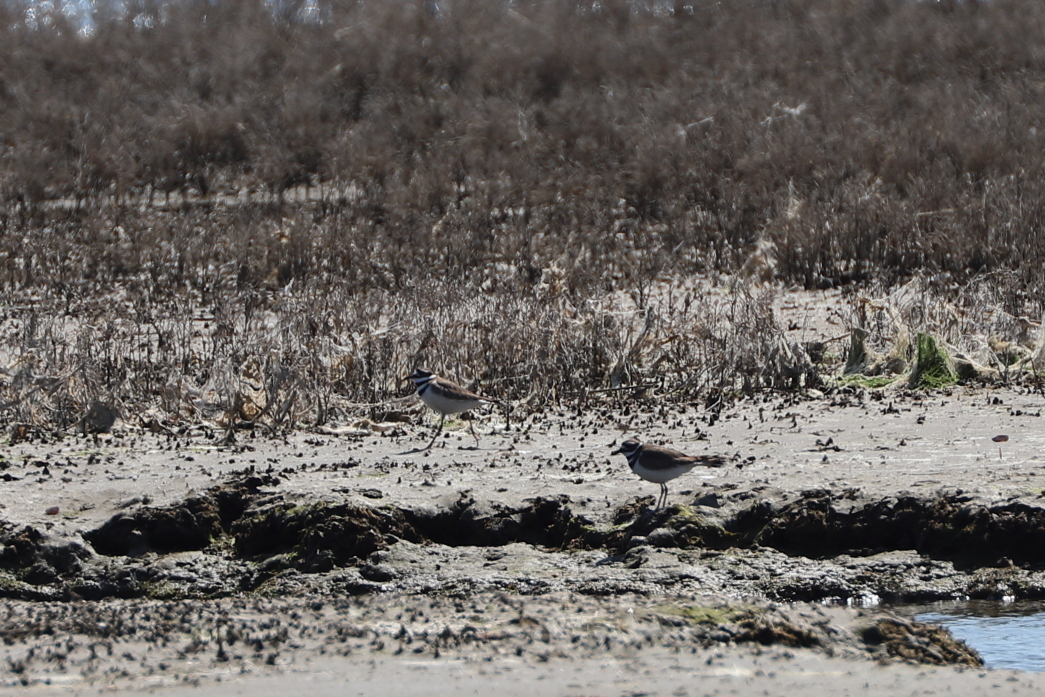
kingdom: Animalia
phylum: Chordata
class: Aves
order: Charadriiformes
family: Charadriidae
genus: Charadrius
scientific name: Charadrius vociferus
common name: Killdeer
